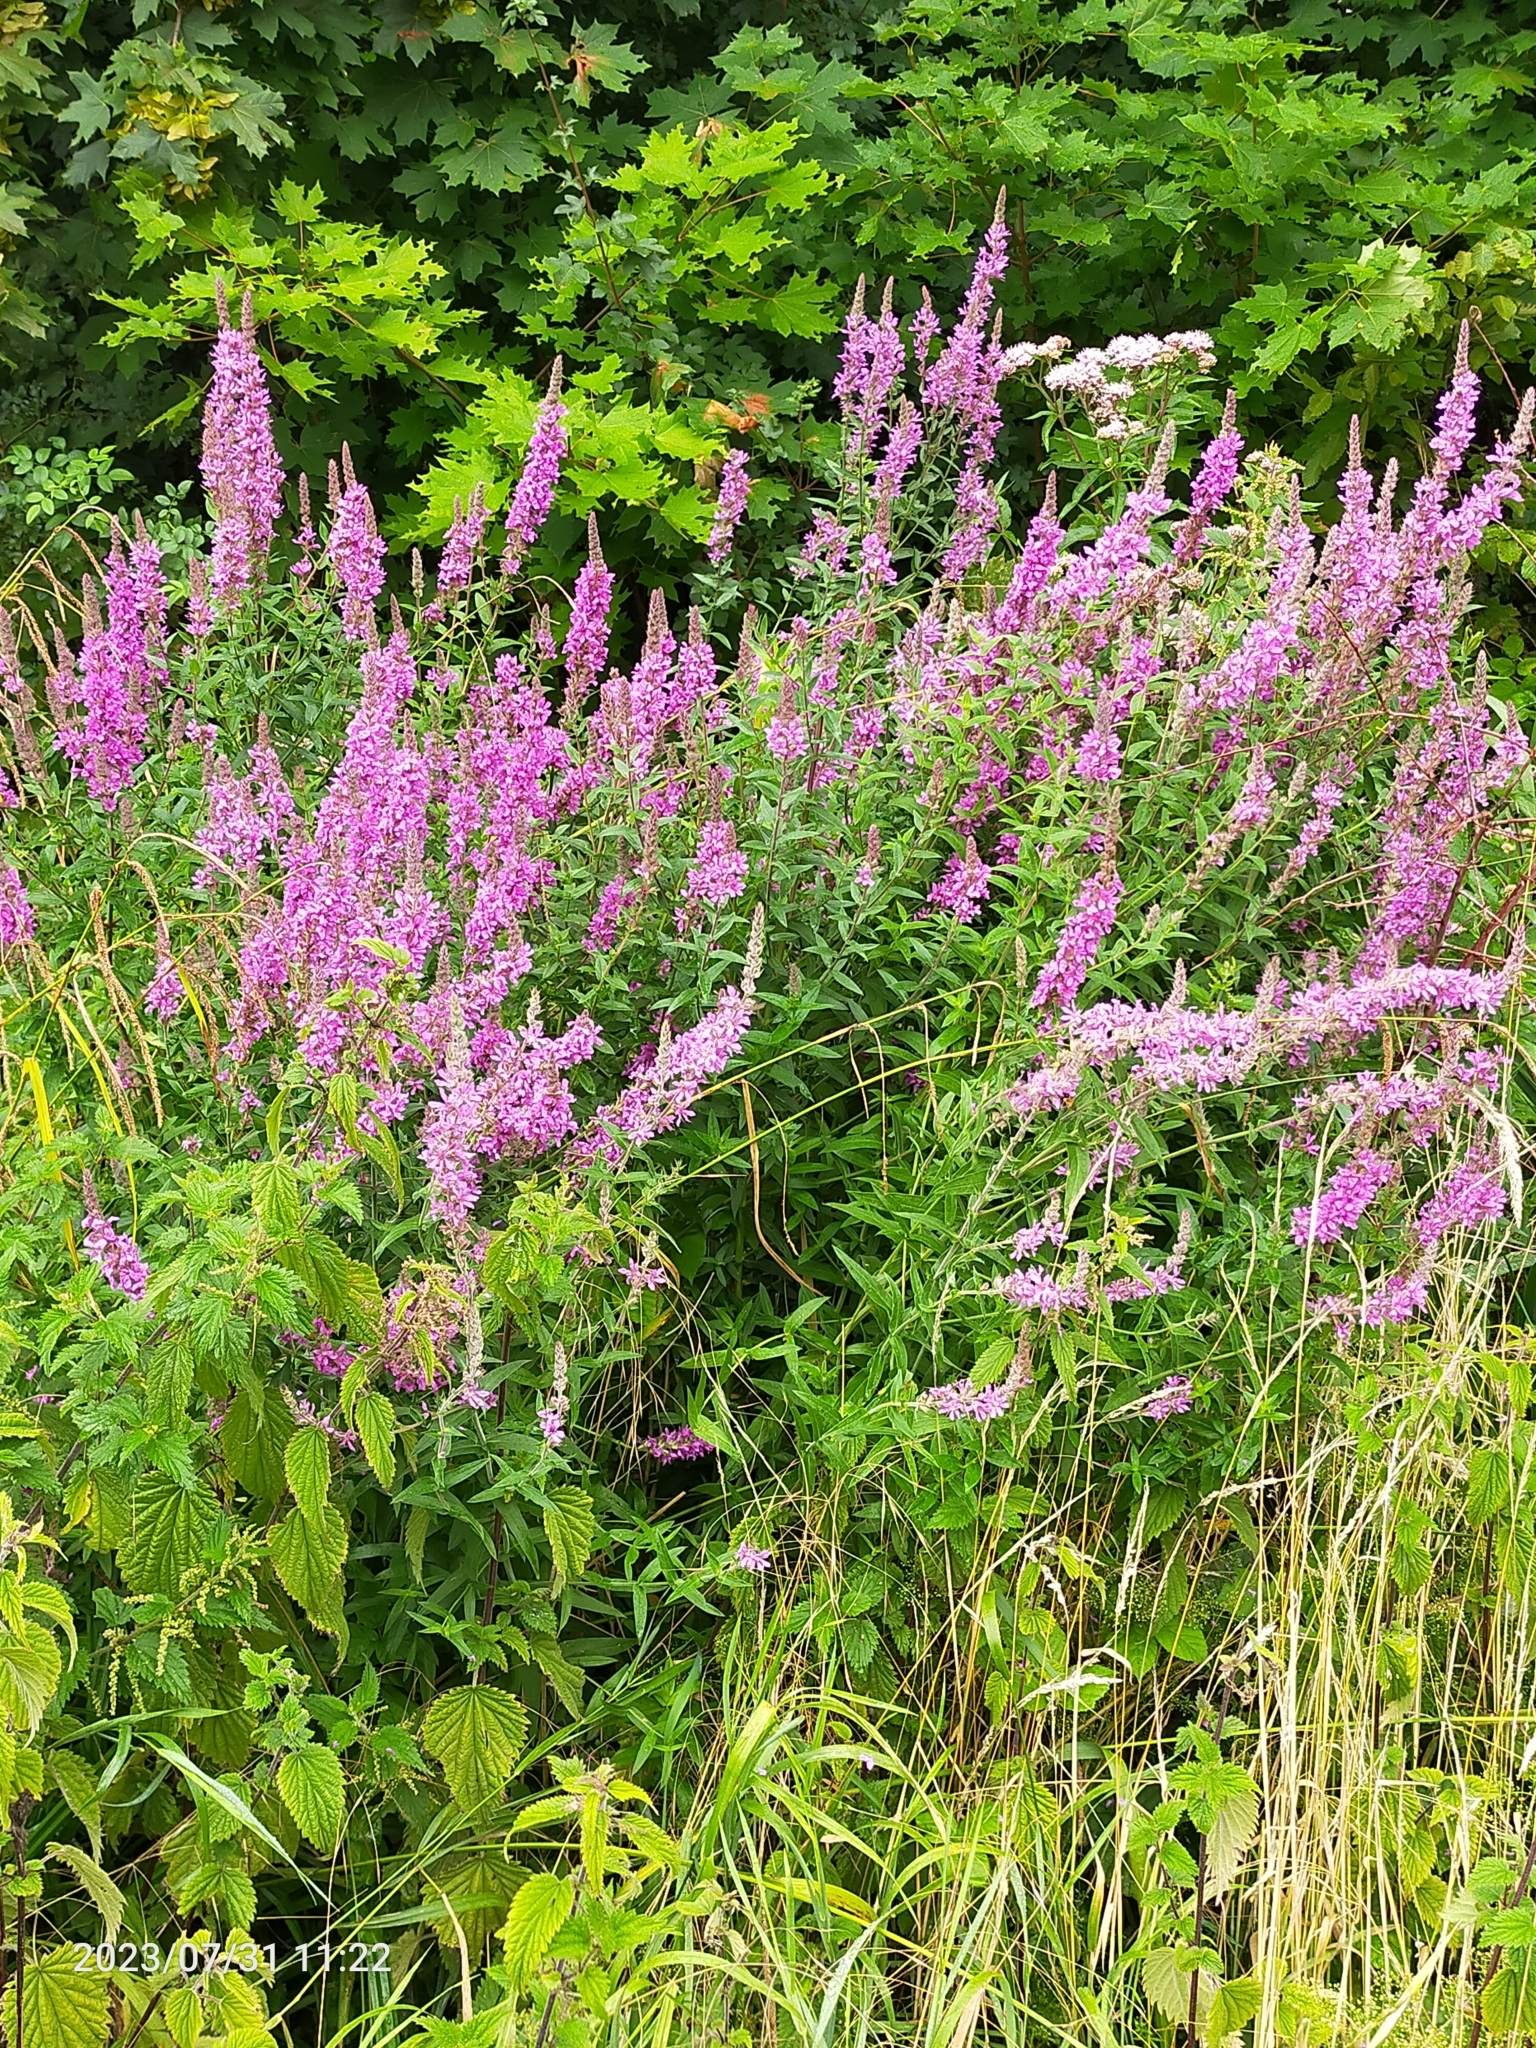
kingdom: Plantae
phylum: Tracheophyta
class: Magnoliopsida
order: Myrtales
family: Lythraceae
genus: Lythrum
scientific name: Lythrum salicaria
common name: Purple loosestrife
